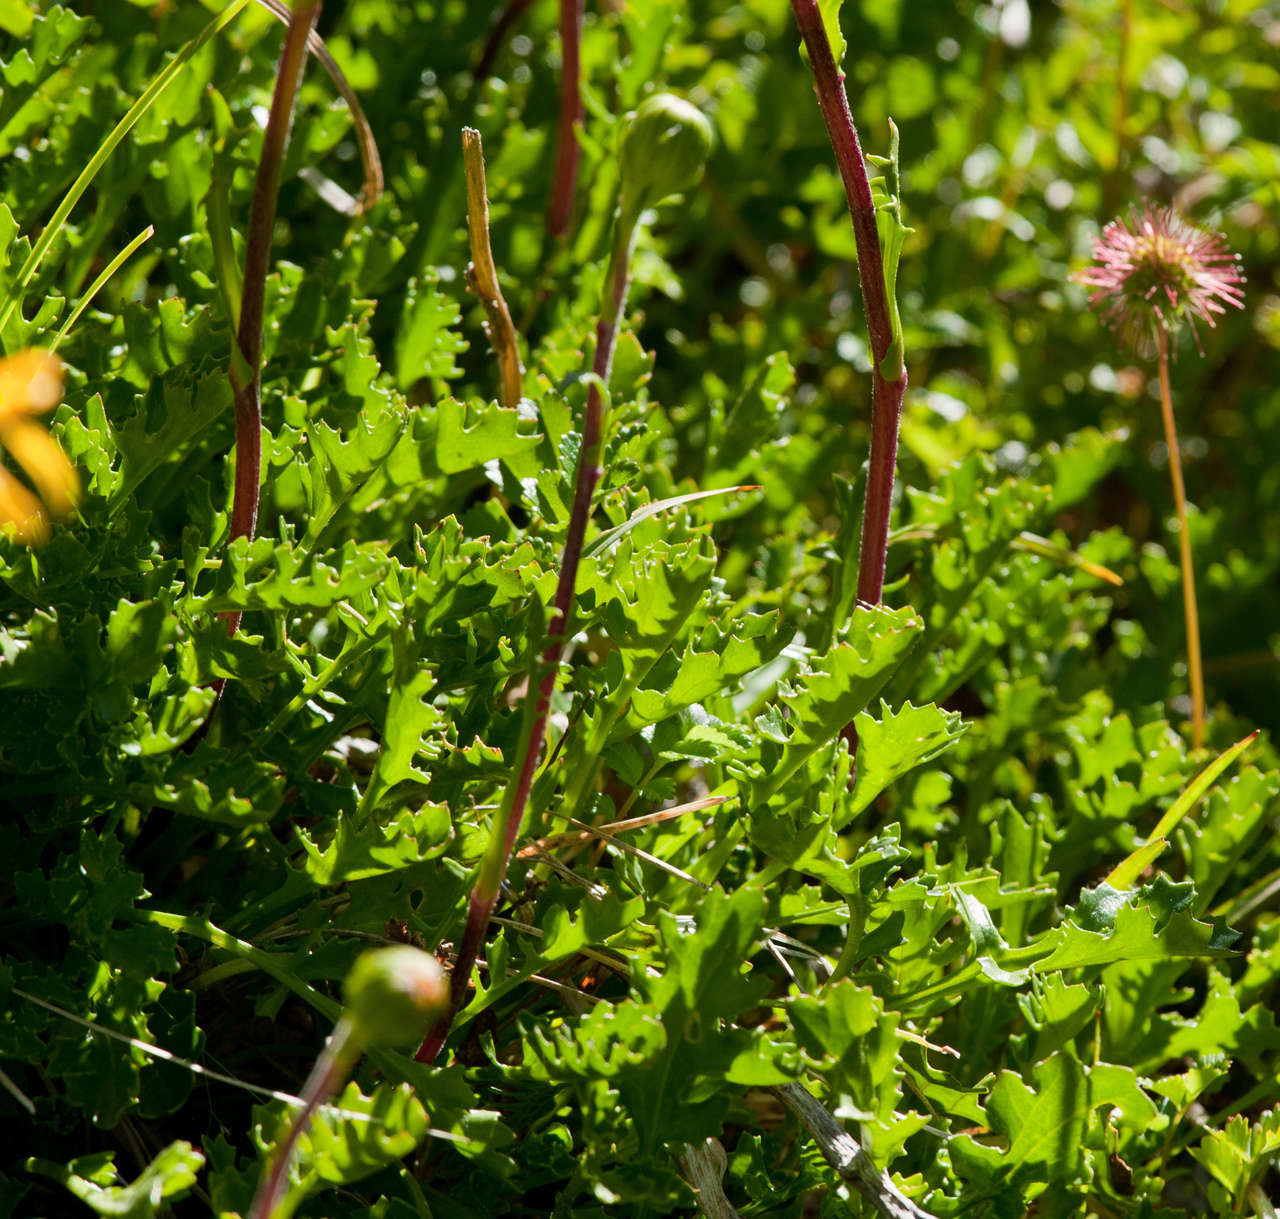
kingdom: Plantae
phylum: Tracheophyta
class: Magnoliopsida
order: Asterales
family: Asteraceae
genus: Scapisenecio
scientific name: Scapisenecio pectinatus
